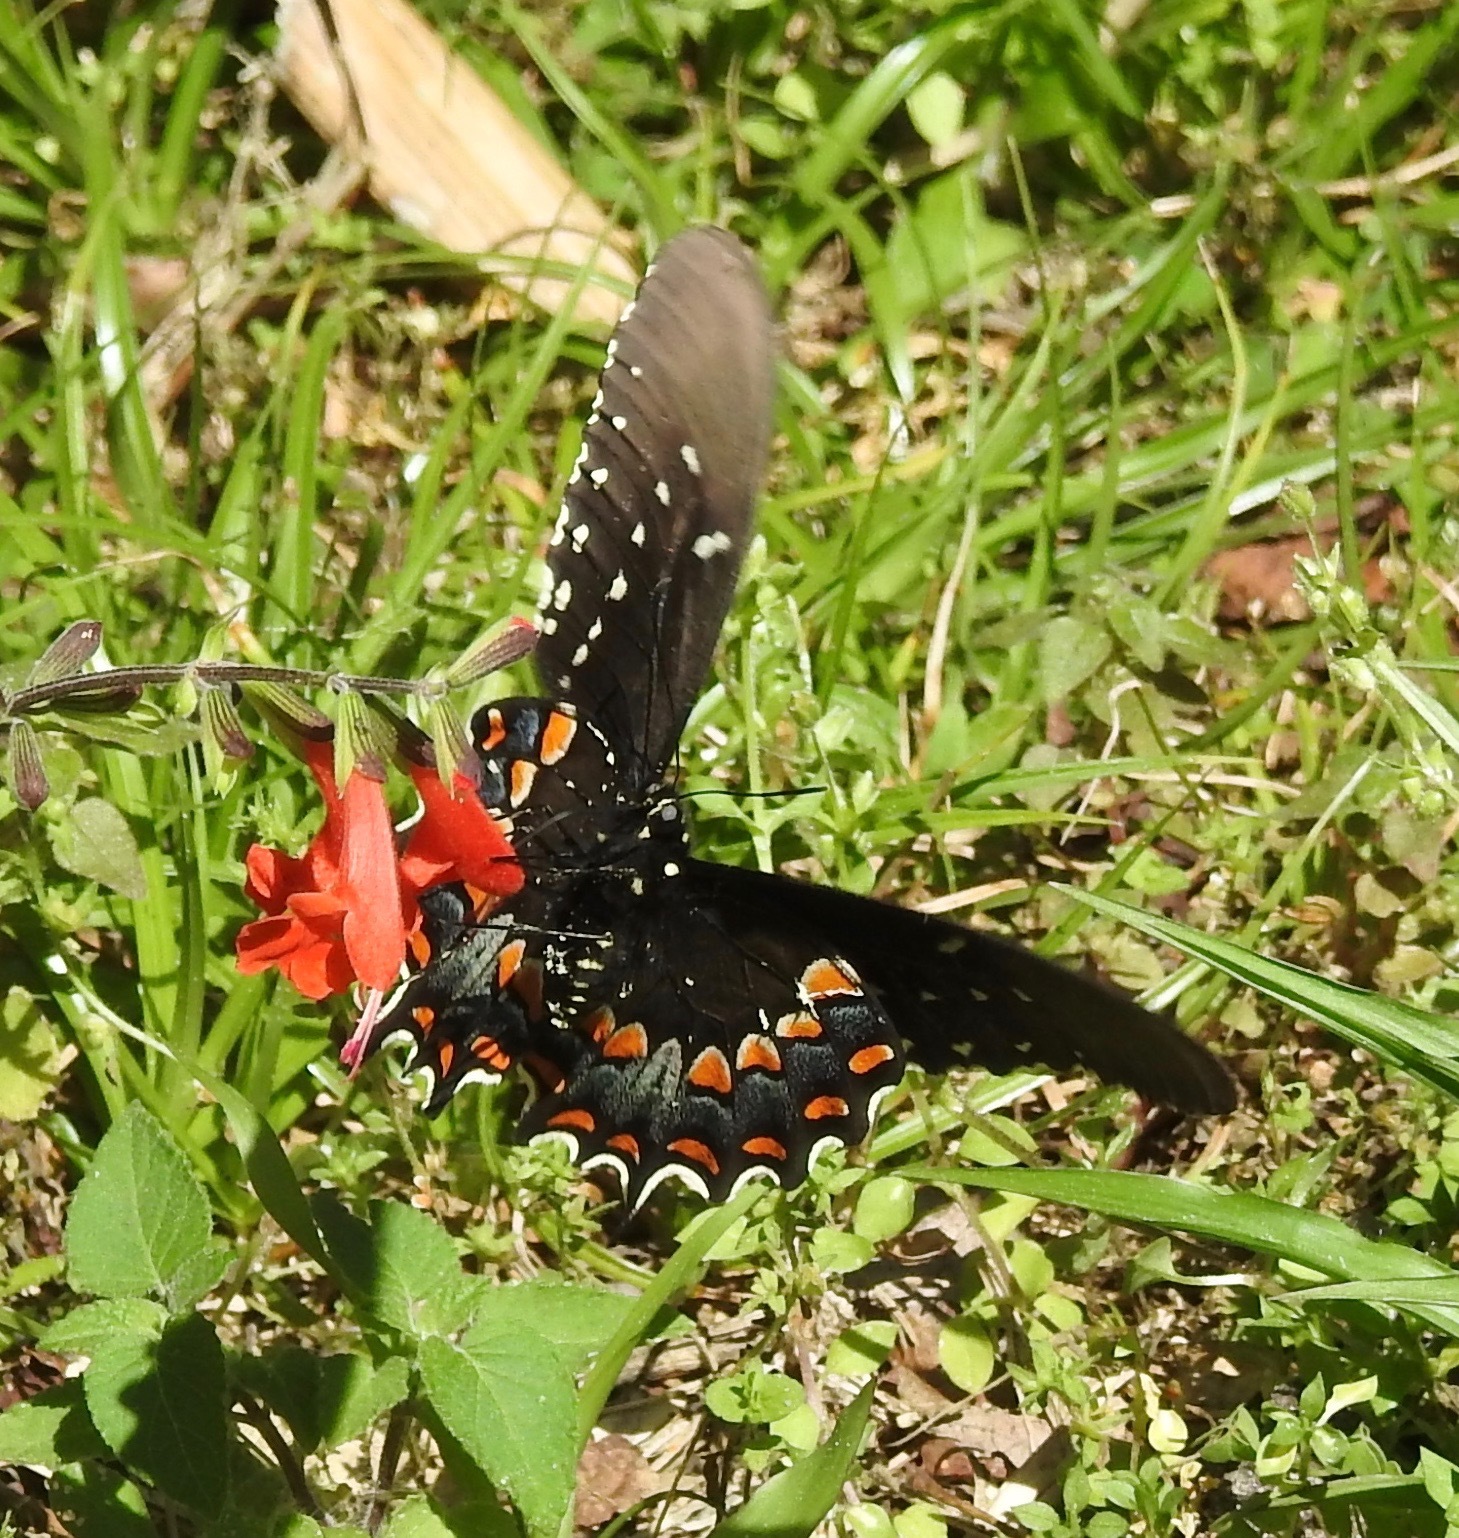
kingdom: Animalia
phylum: Arthropoda
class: Insecta
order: Lepidoptera
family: Papilionidae
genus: Papilio
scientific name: Papilio troilus
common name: Spicebush swallowtail
